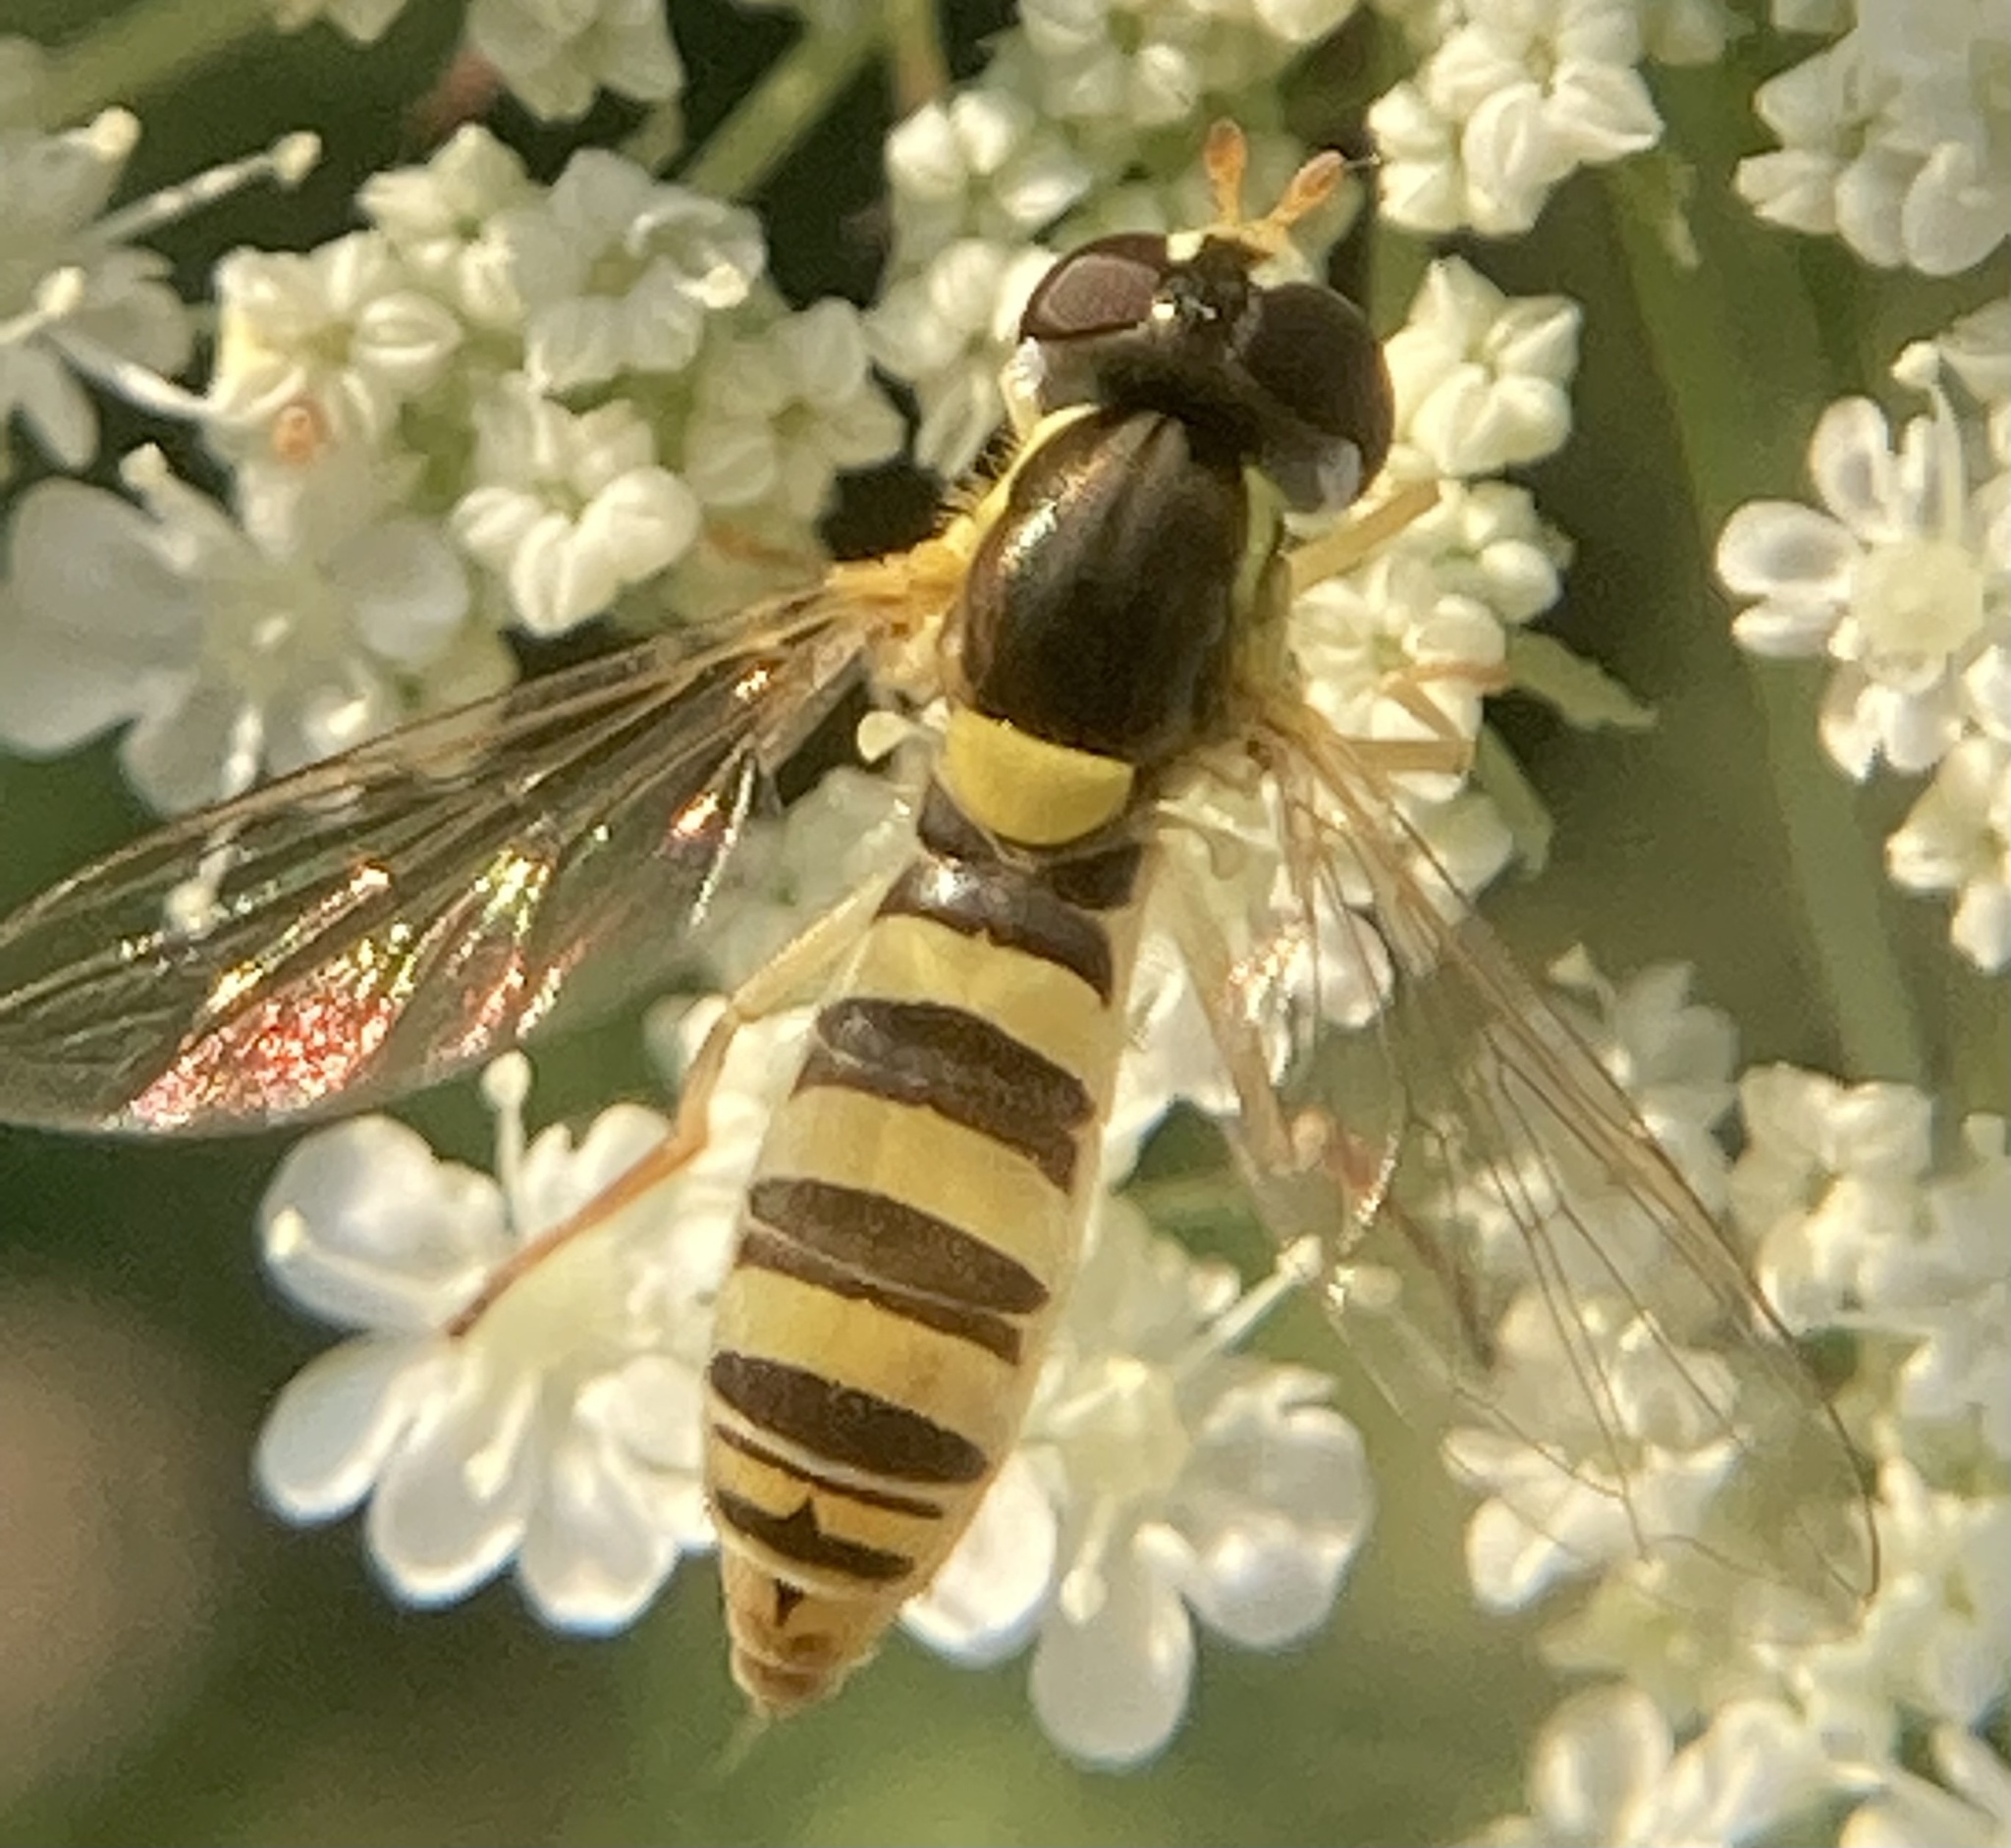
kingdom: Animalia
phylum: Arthropoda
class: Insecta
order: Diptera
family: Syrphidae
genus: Sphaerophoria
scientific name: Sphaerophoria contigua
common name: Tufted globetail
